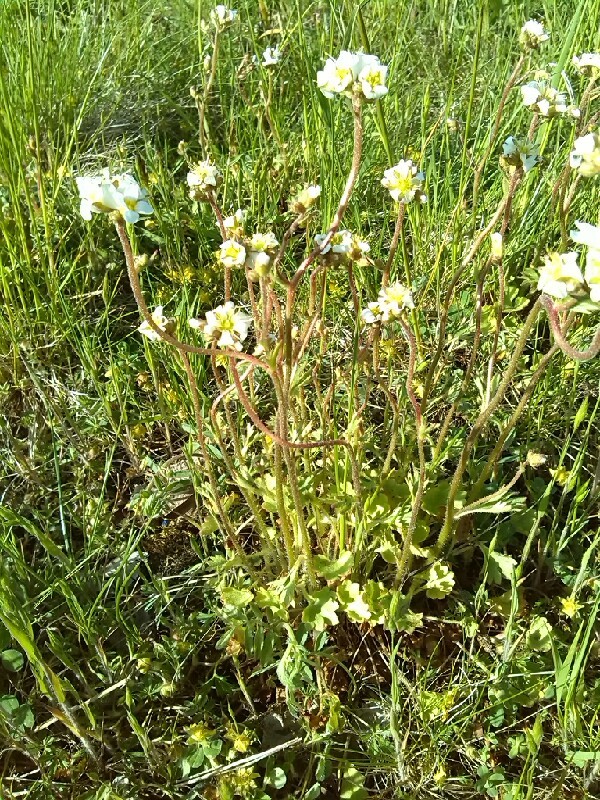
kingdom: Plantae
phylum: Tracheophyta
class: Magnoliopsida
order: Saxifragales
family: Saxifragaceae
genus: Saxifraga
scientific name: Saxifraga granulata
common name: Meadow saxifrage
